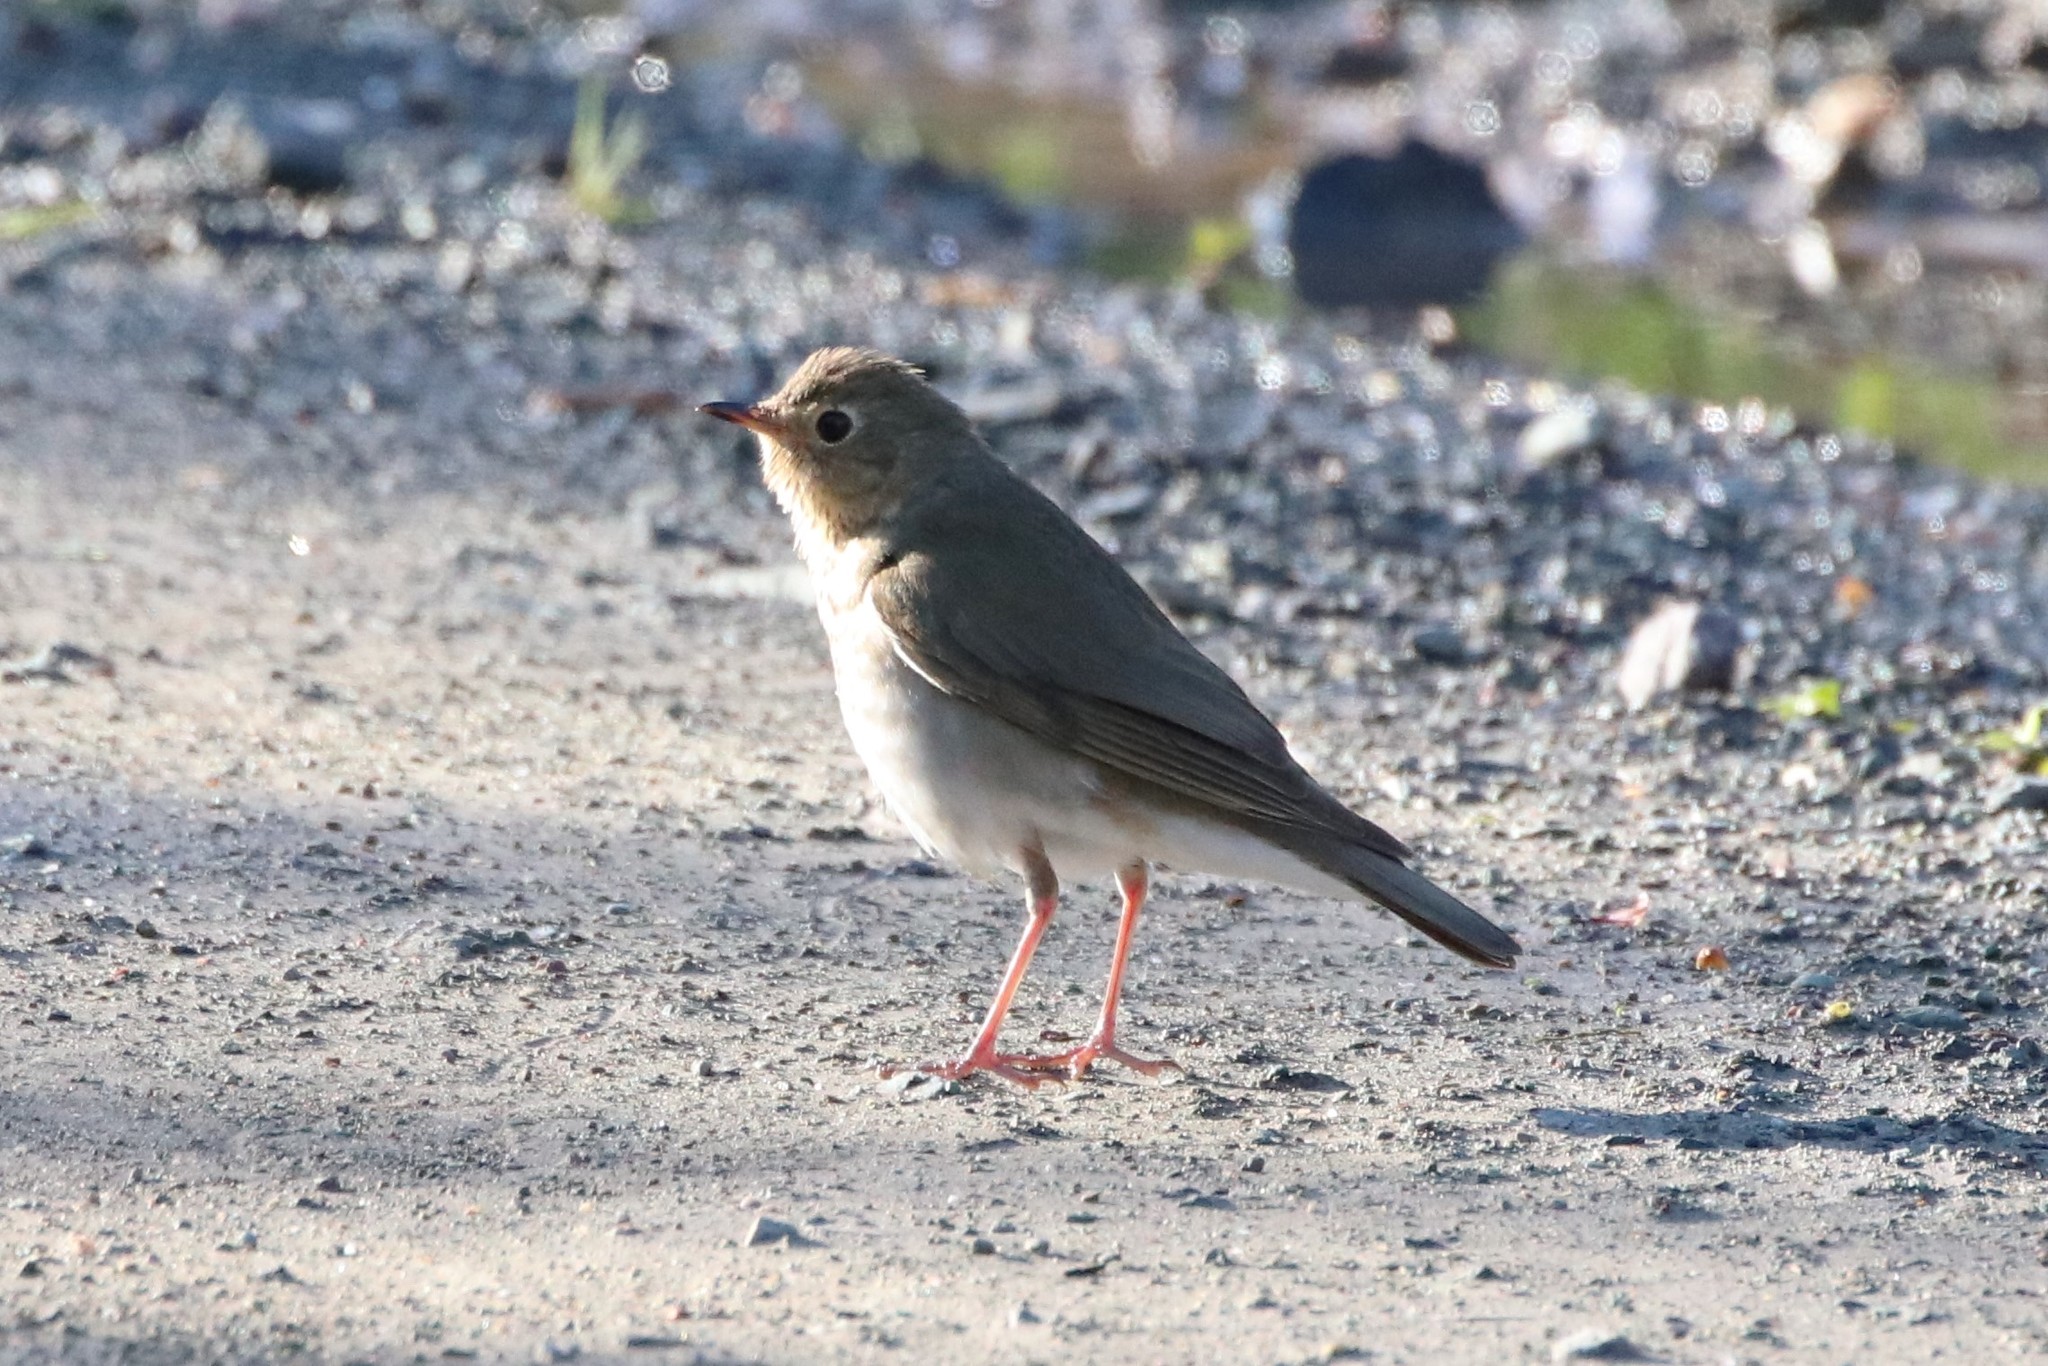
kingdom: Animalia
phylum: Chordata
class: Aves
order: Passeriformes
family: Turdidae
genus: Catharus
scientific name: Catharus ustulatus
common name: Swainson's thrush
